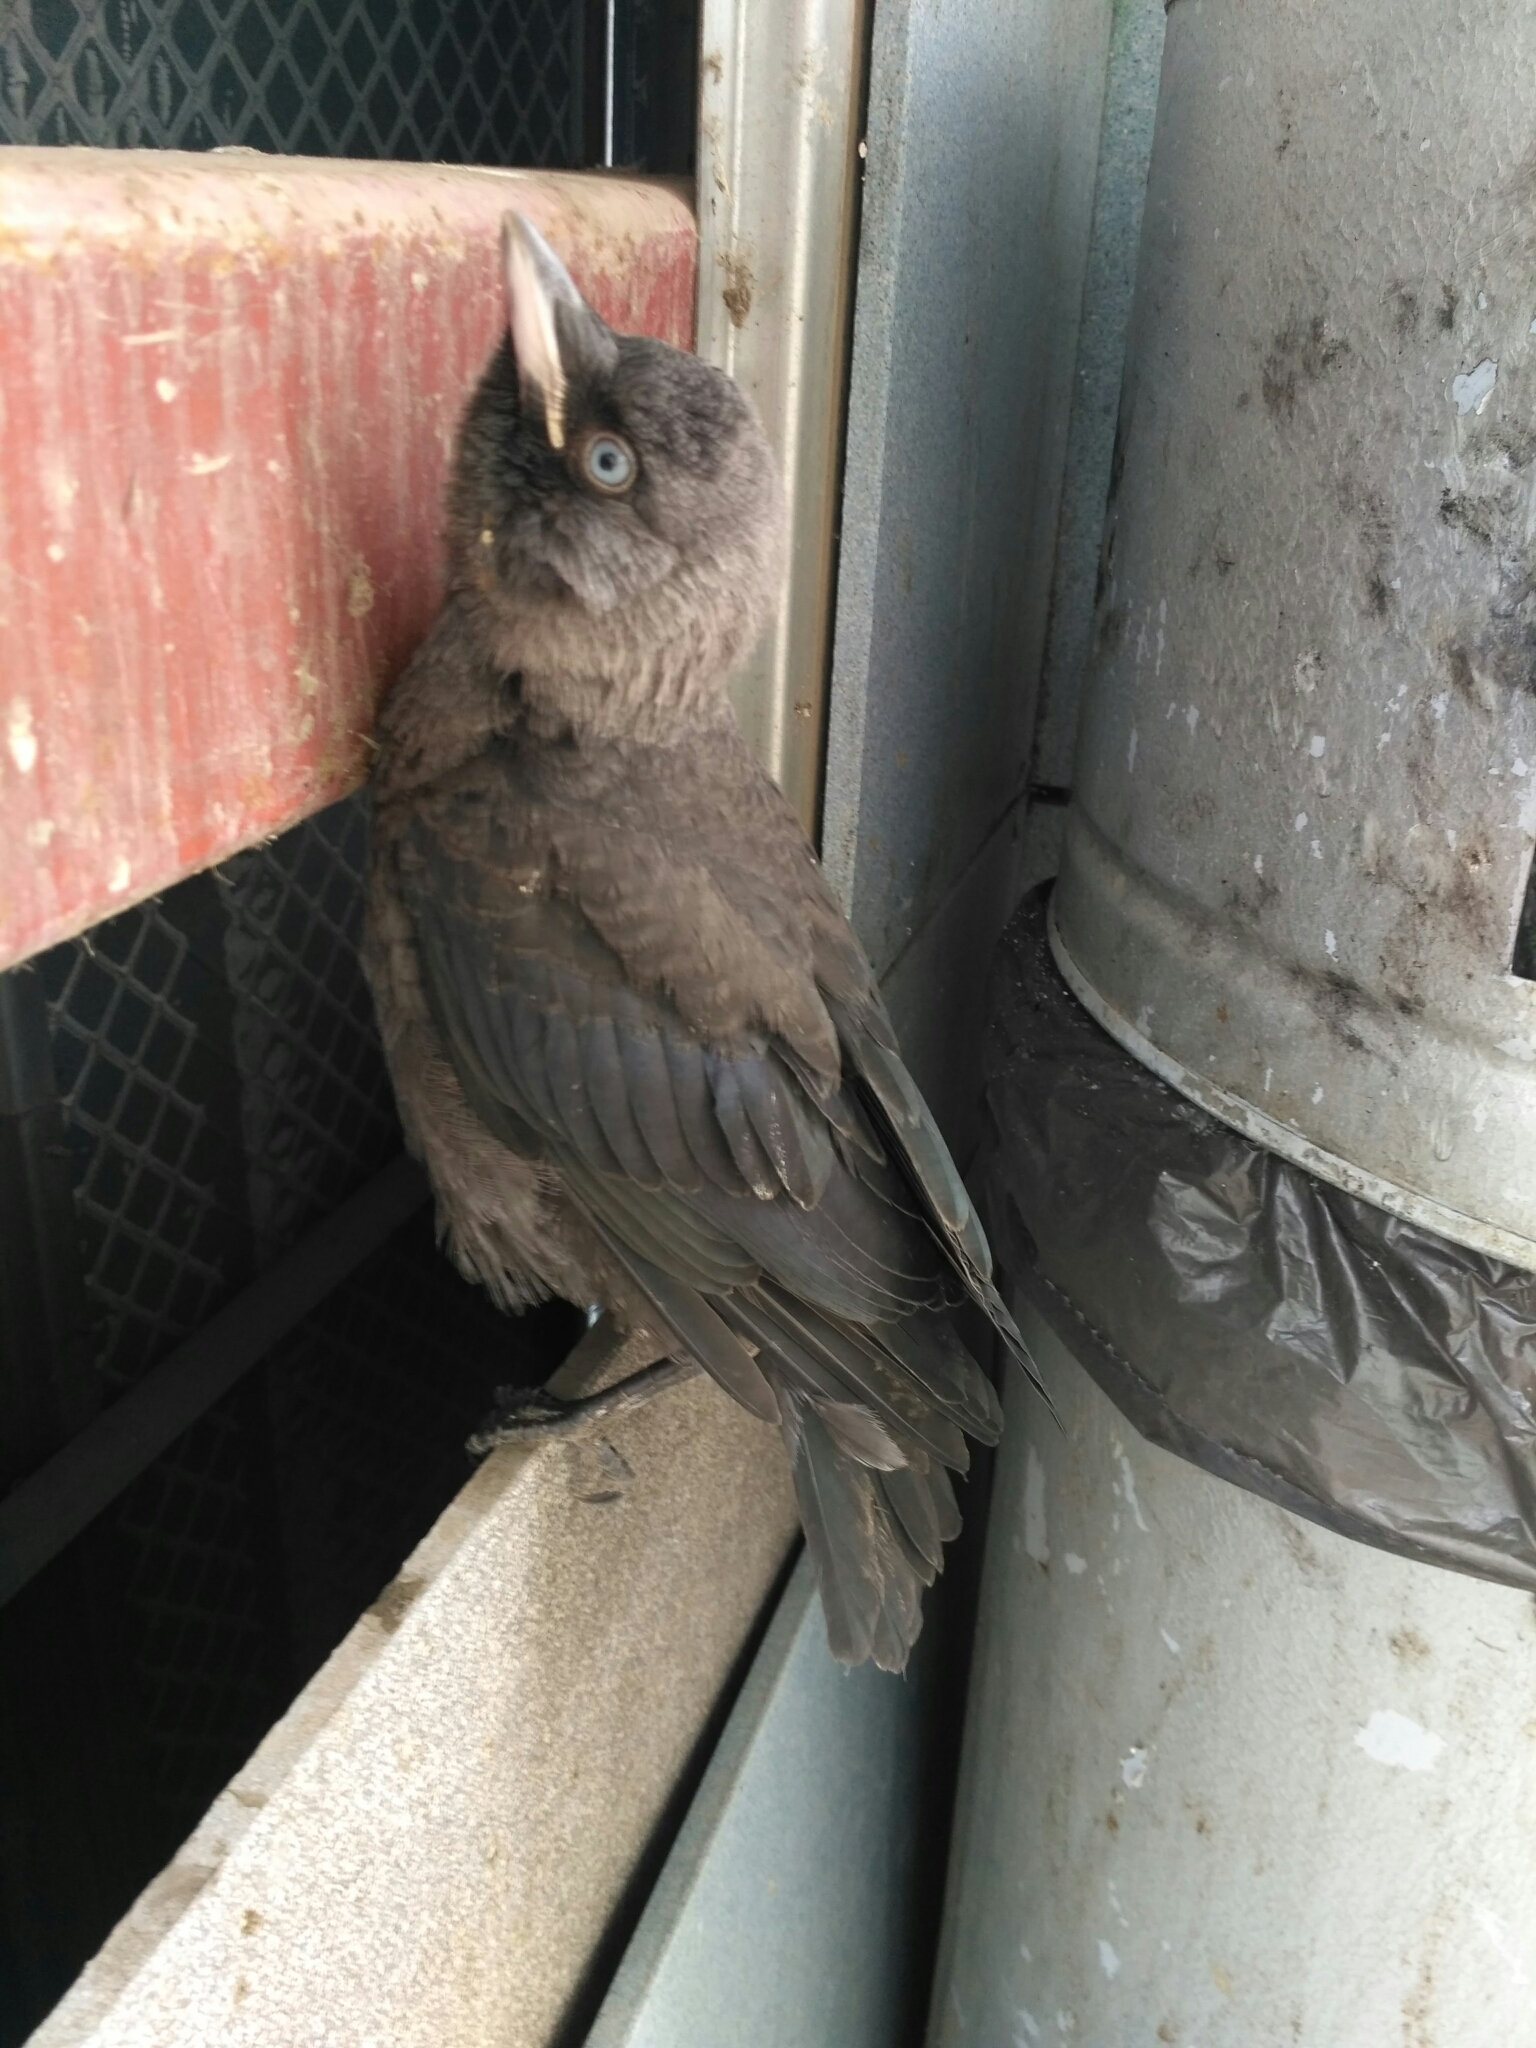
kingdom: Animalia
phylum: Chordata
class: Aves
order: Passeriformes
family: Corvidae
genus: Coloeus
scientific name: Coloeus monedula
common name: Western jackdaw
